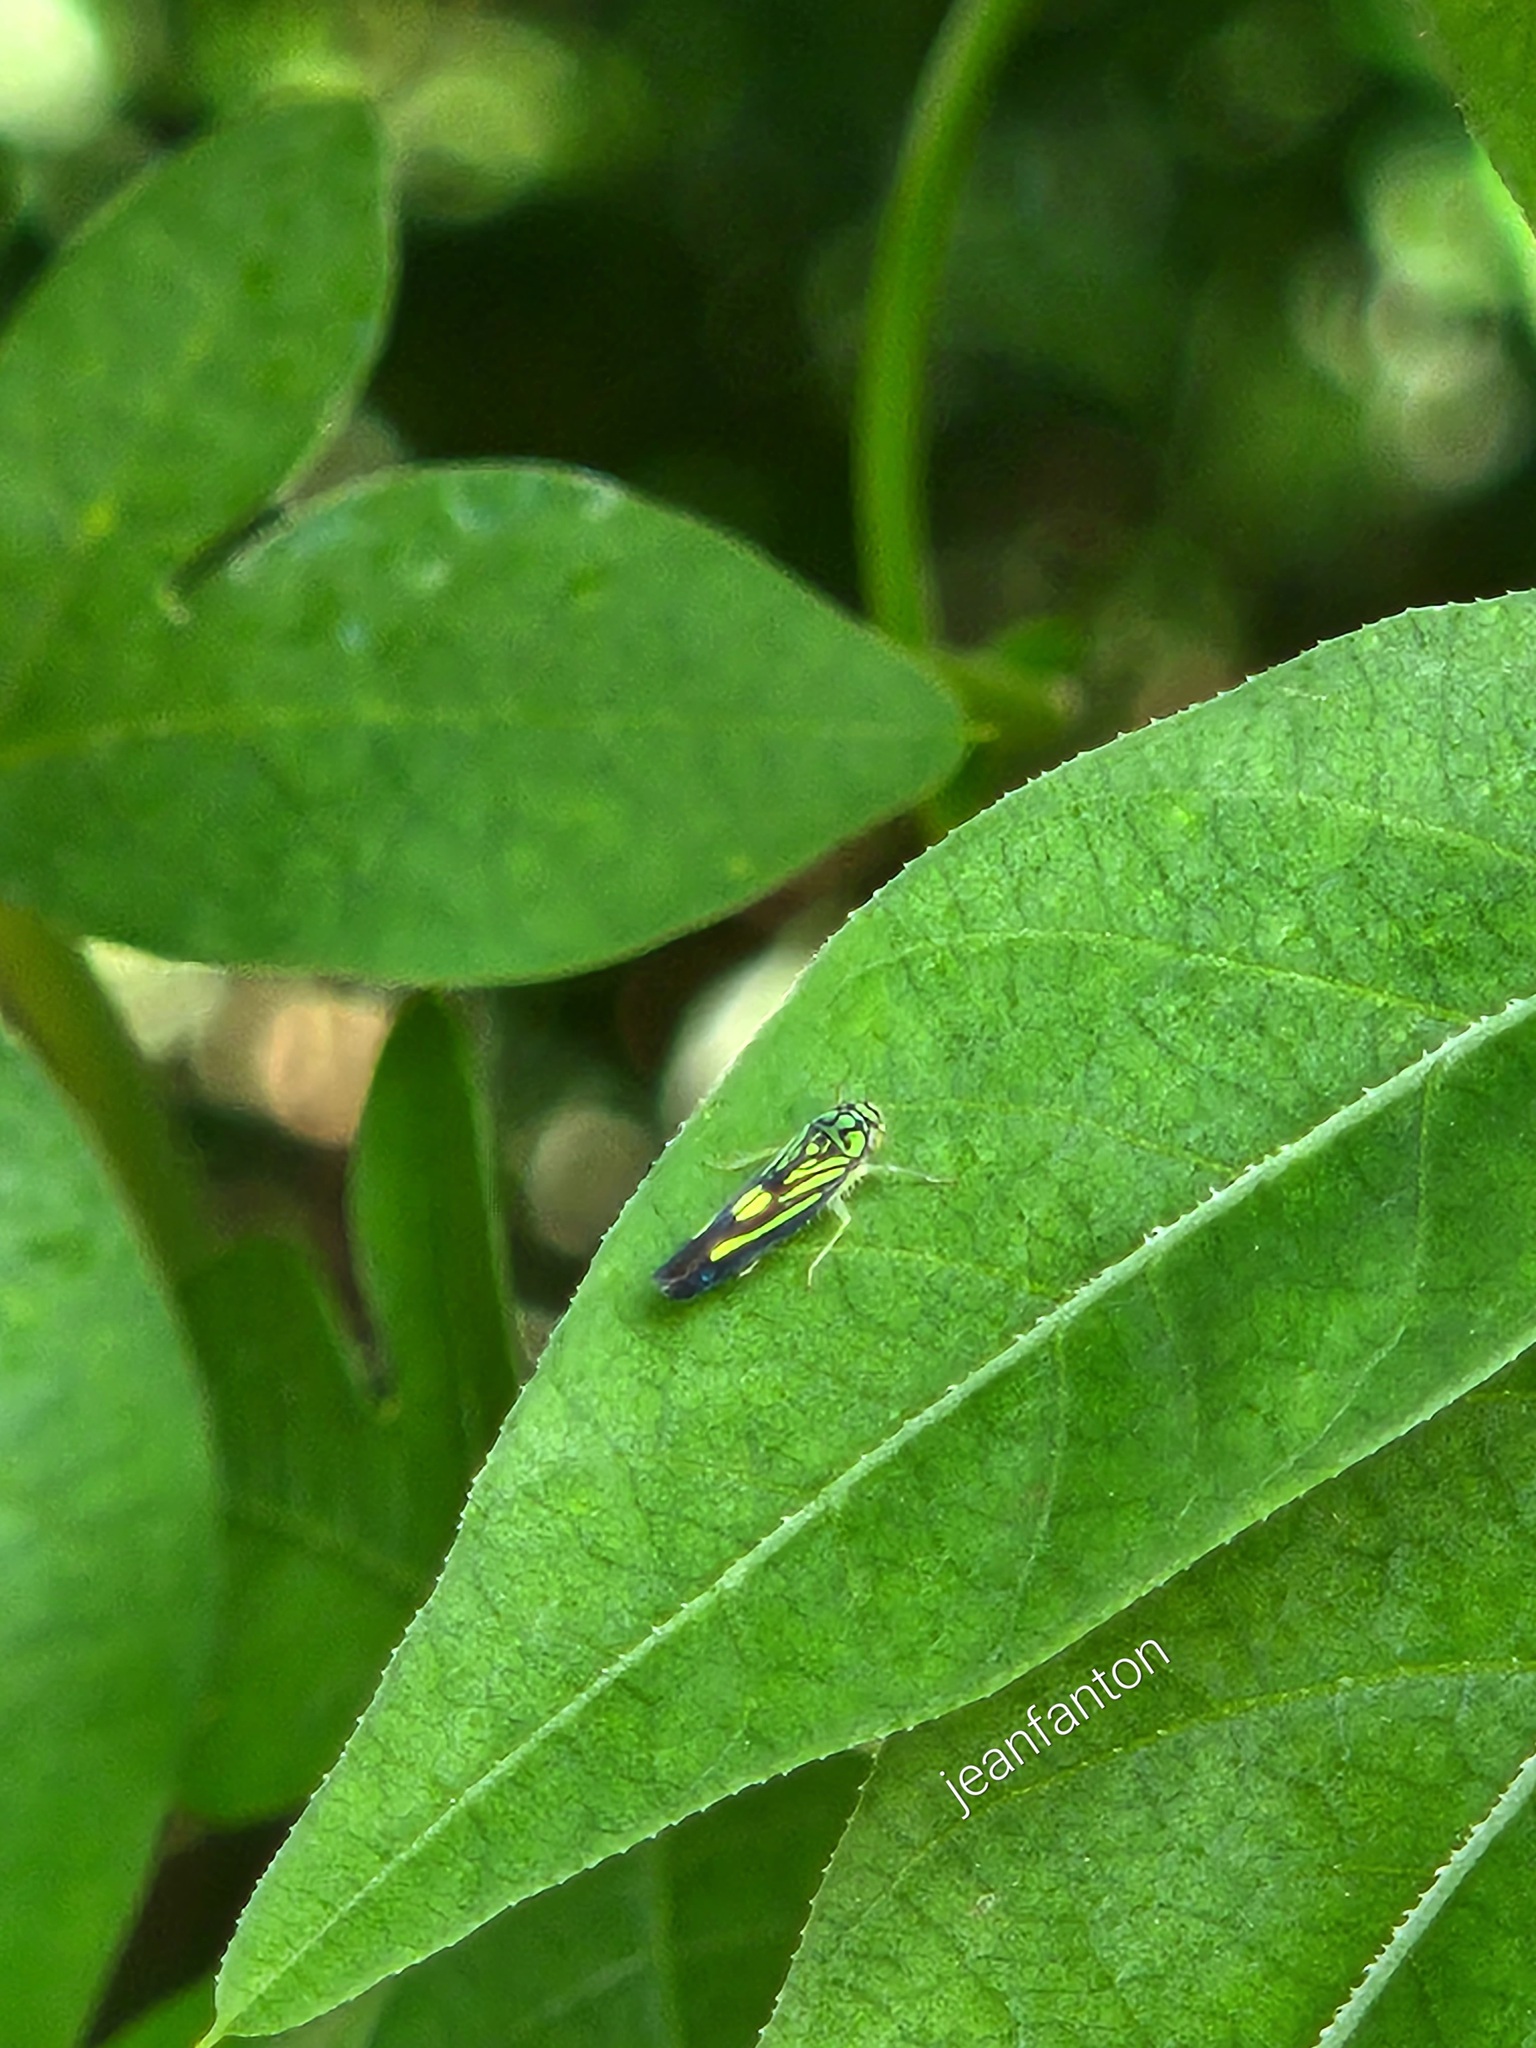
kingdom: Animalia
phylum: Arthropoda
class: Insecta
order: Hemiptera
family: Cicadellidae
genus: Scopogonalia
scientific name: Scopogonalia interruptula
